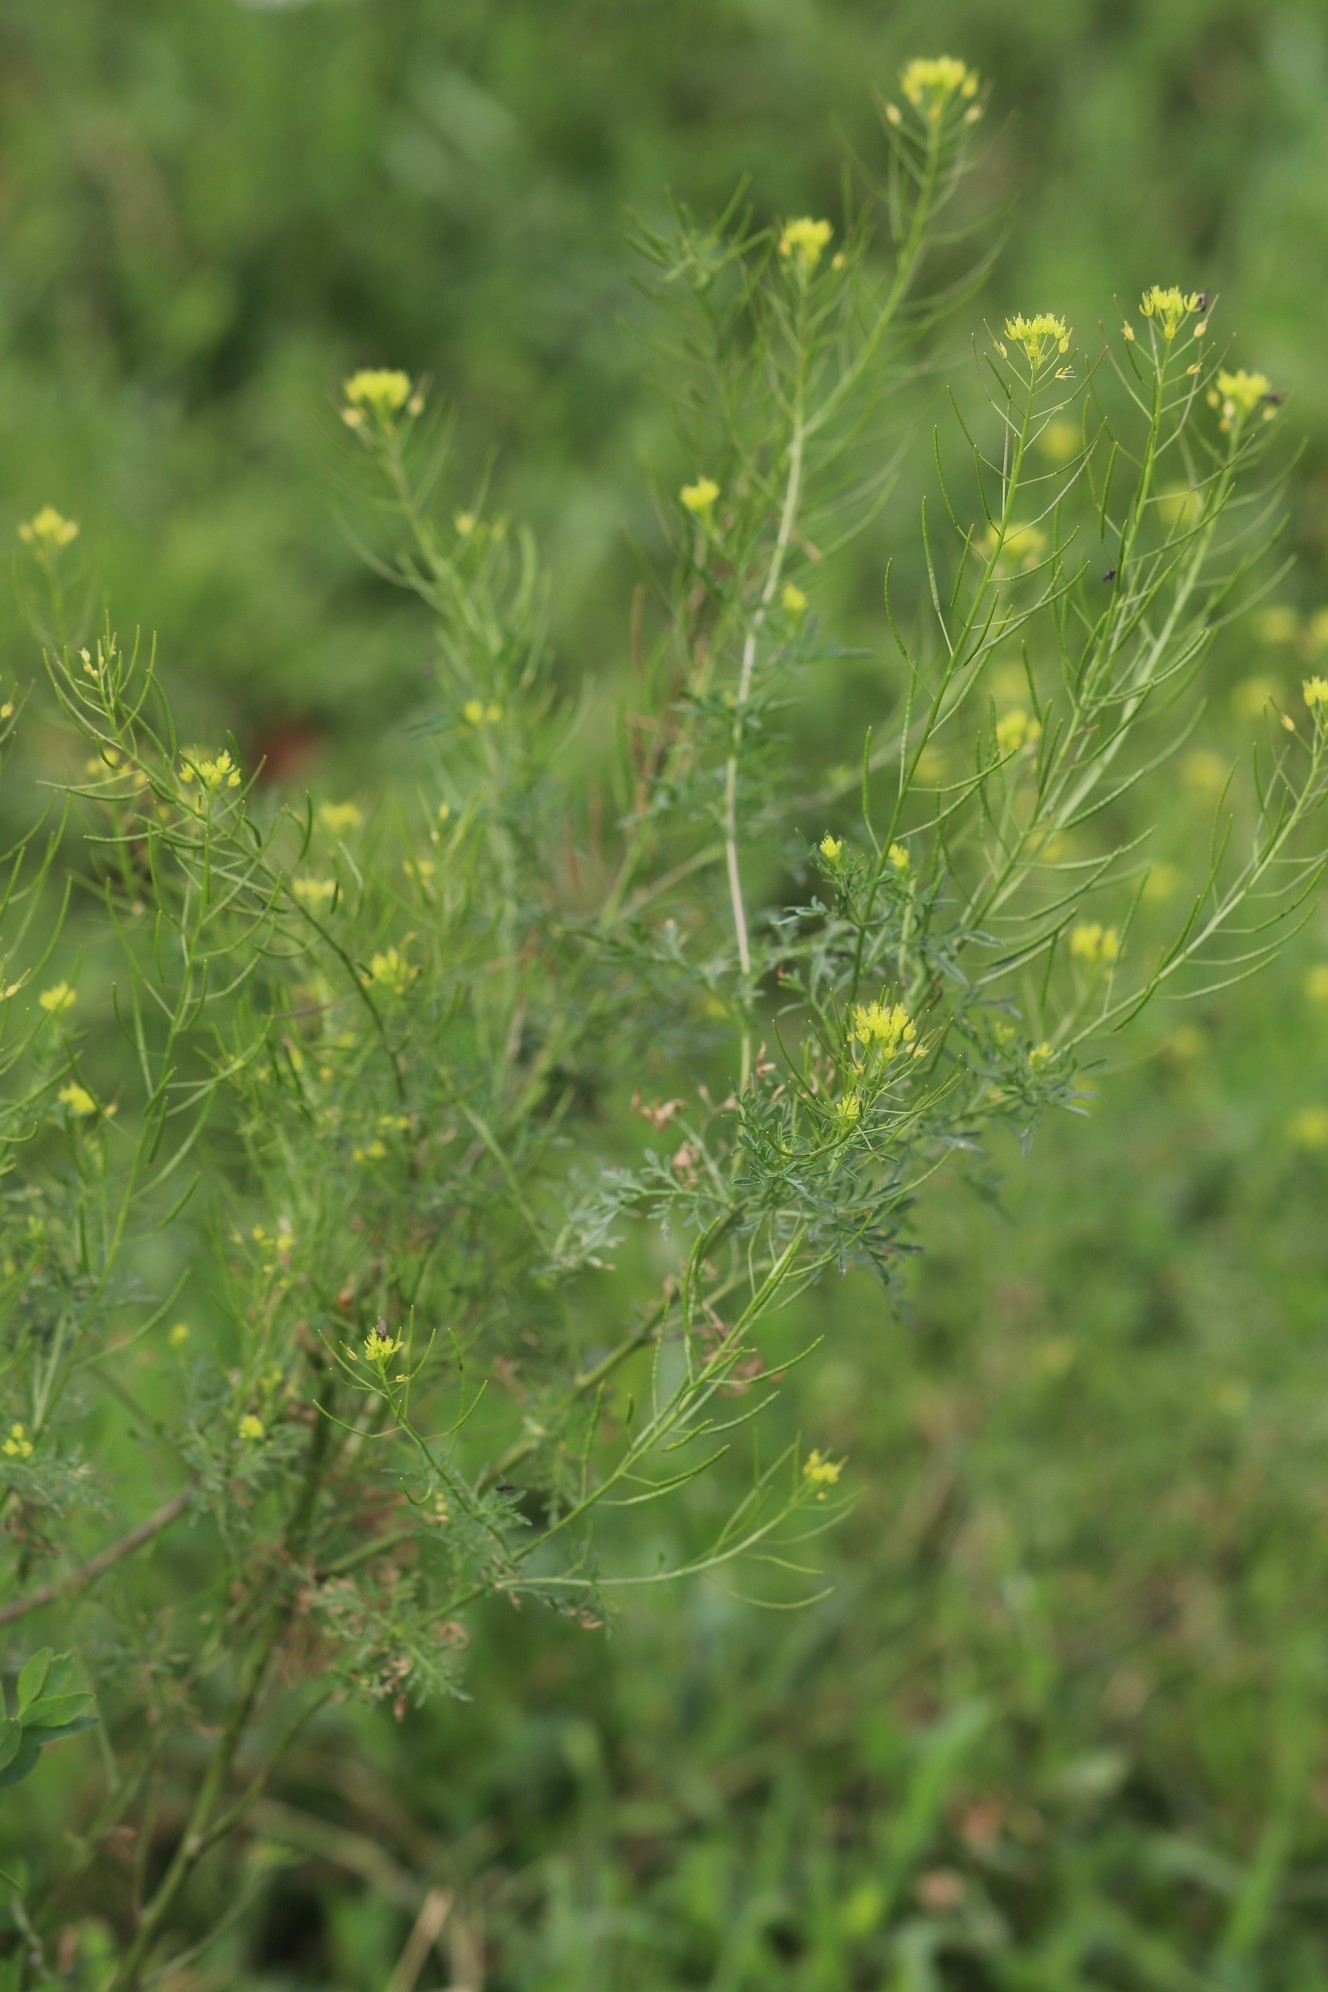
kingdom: Plantae
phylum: Tracheophyta
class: Magnoliopsida
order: Brassicales
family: Brassicaceae
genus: Descurainia
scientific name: Descurainia sophia
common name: Flixweed
